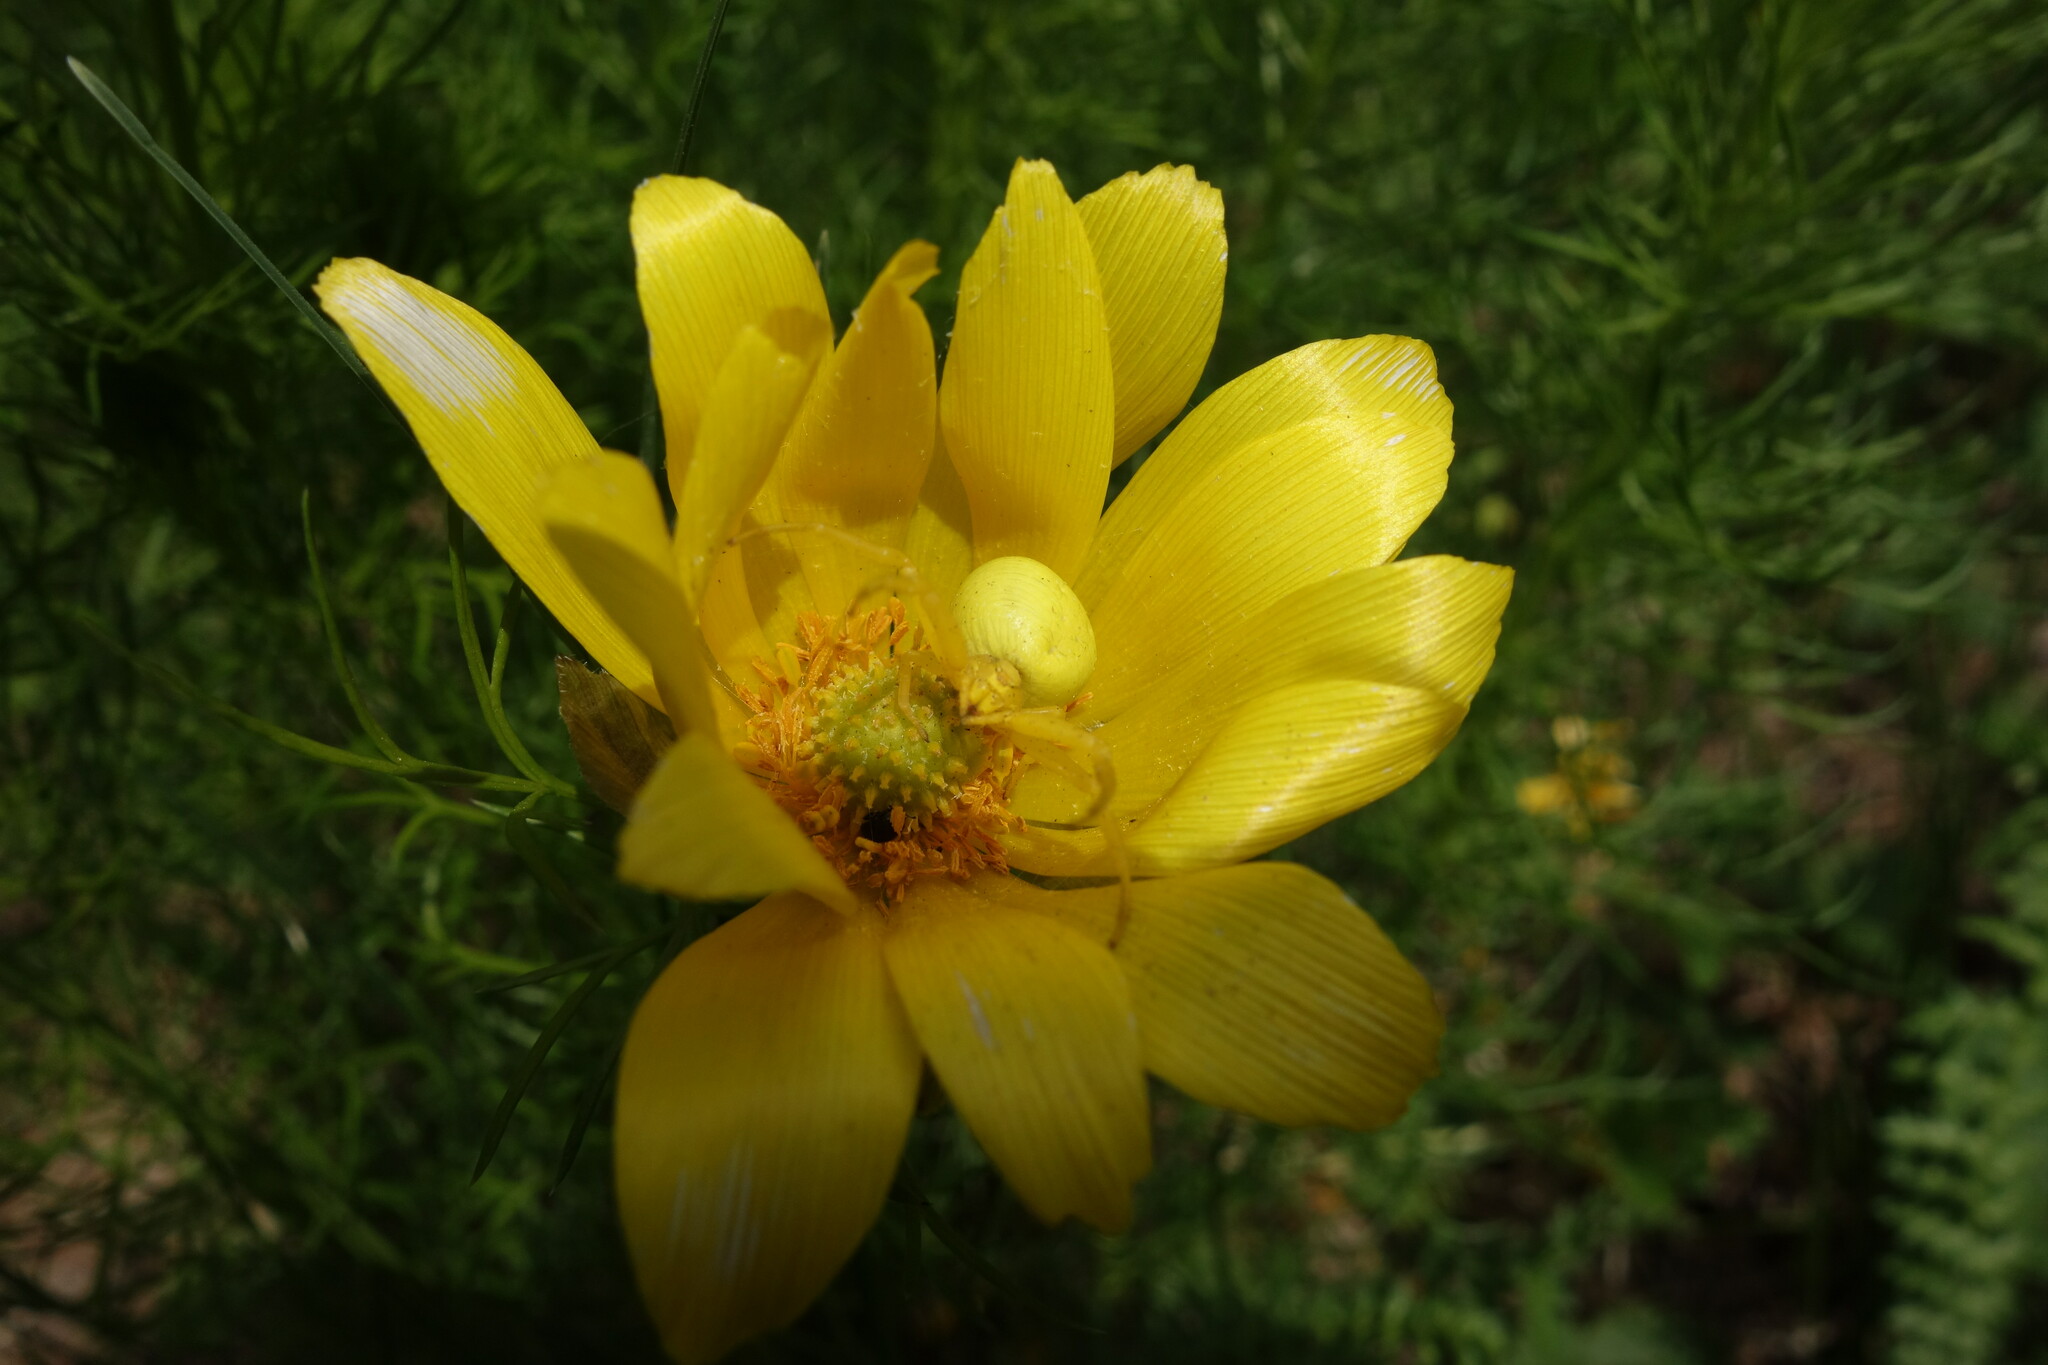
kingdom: Animalia
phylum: Arthropoda
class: Arachnida
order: Araneae
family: Thomisidae
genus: Misumena
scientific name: Misumena vatia
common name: Goldenrod crab spider
